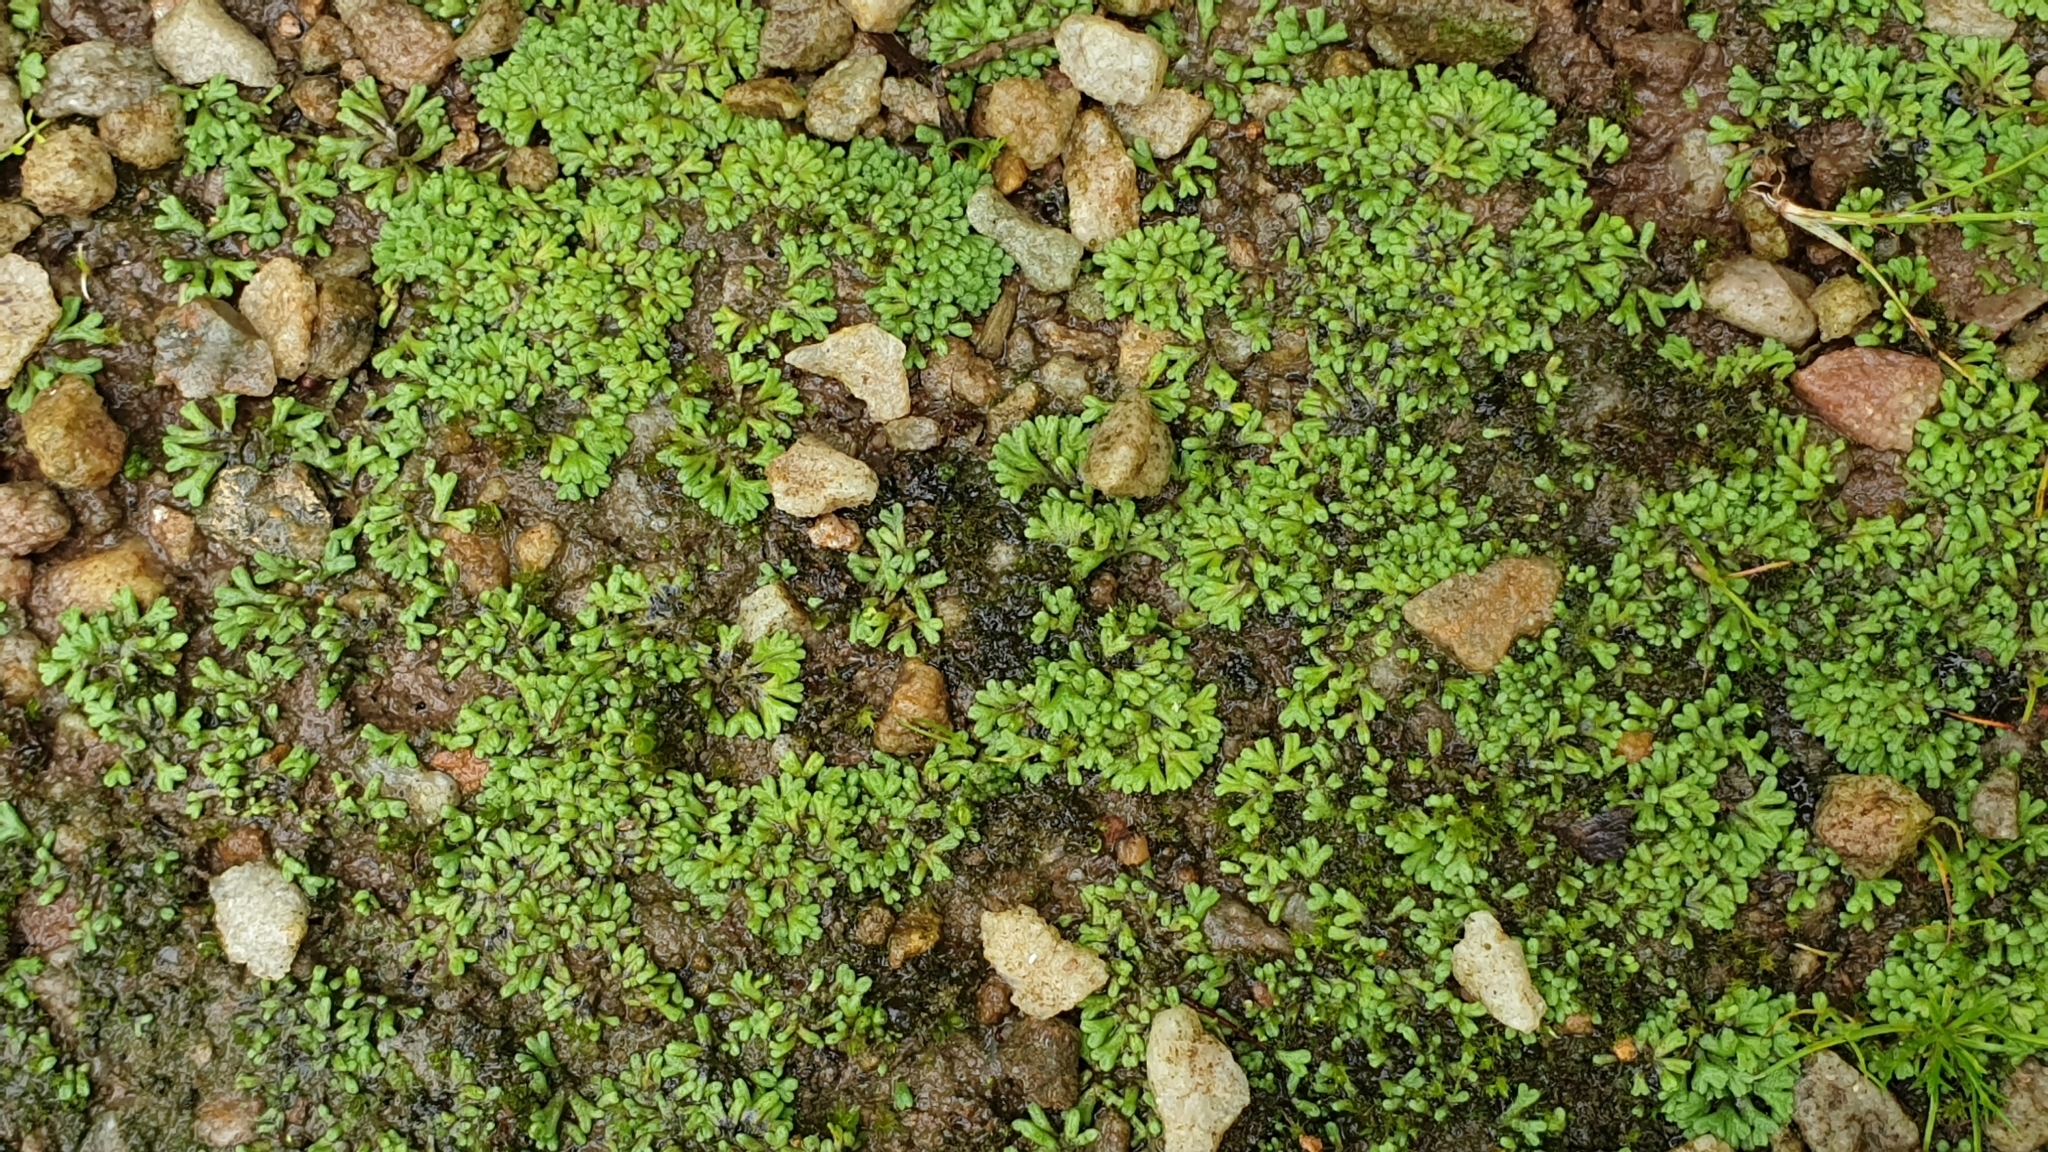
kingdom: Plantae
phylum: Marchantiophyta
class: Marchantiopsida
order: Marchantiales
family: Ricciaceae
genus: Riccia
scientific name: Riccia bifurca
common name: Lizard crystalwort
